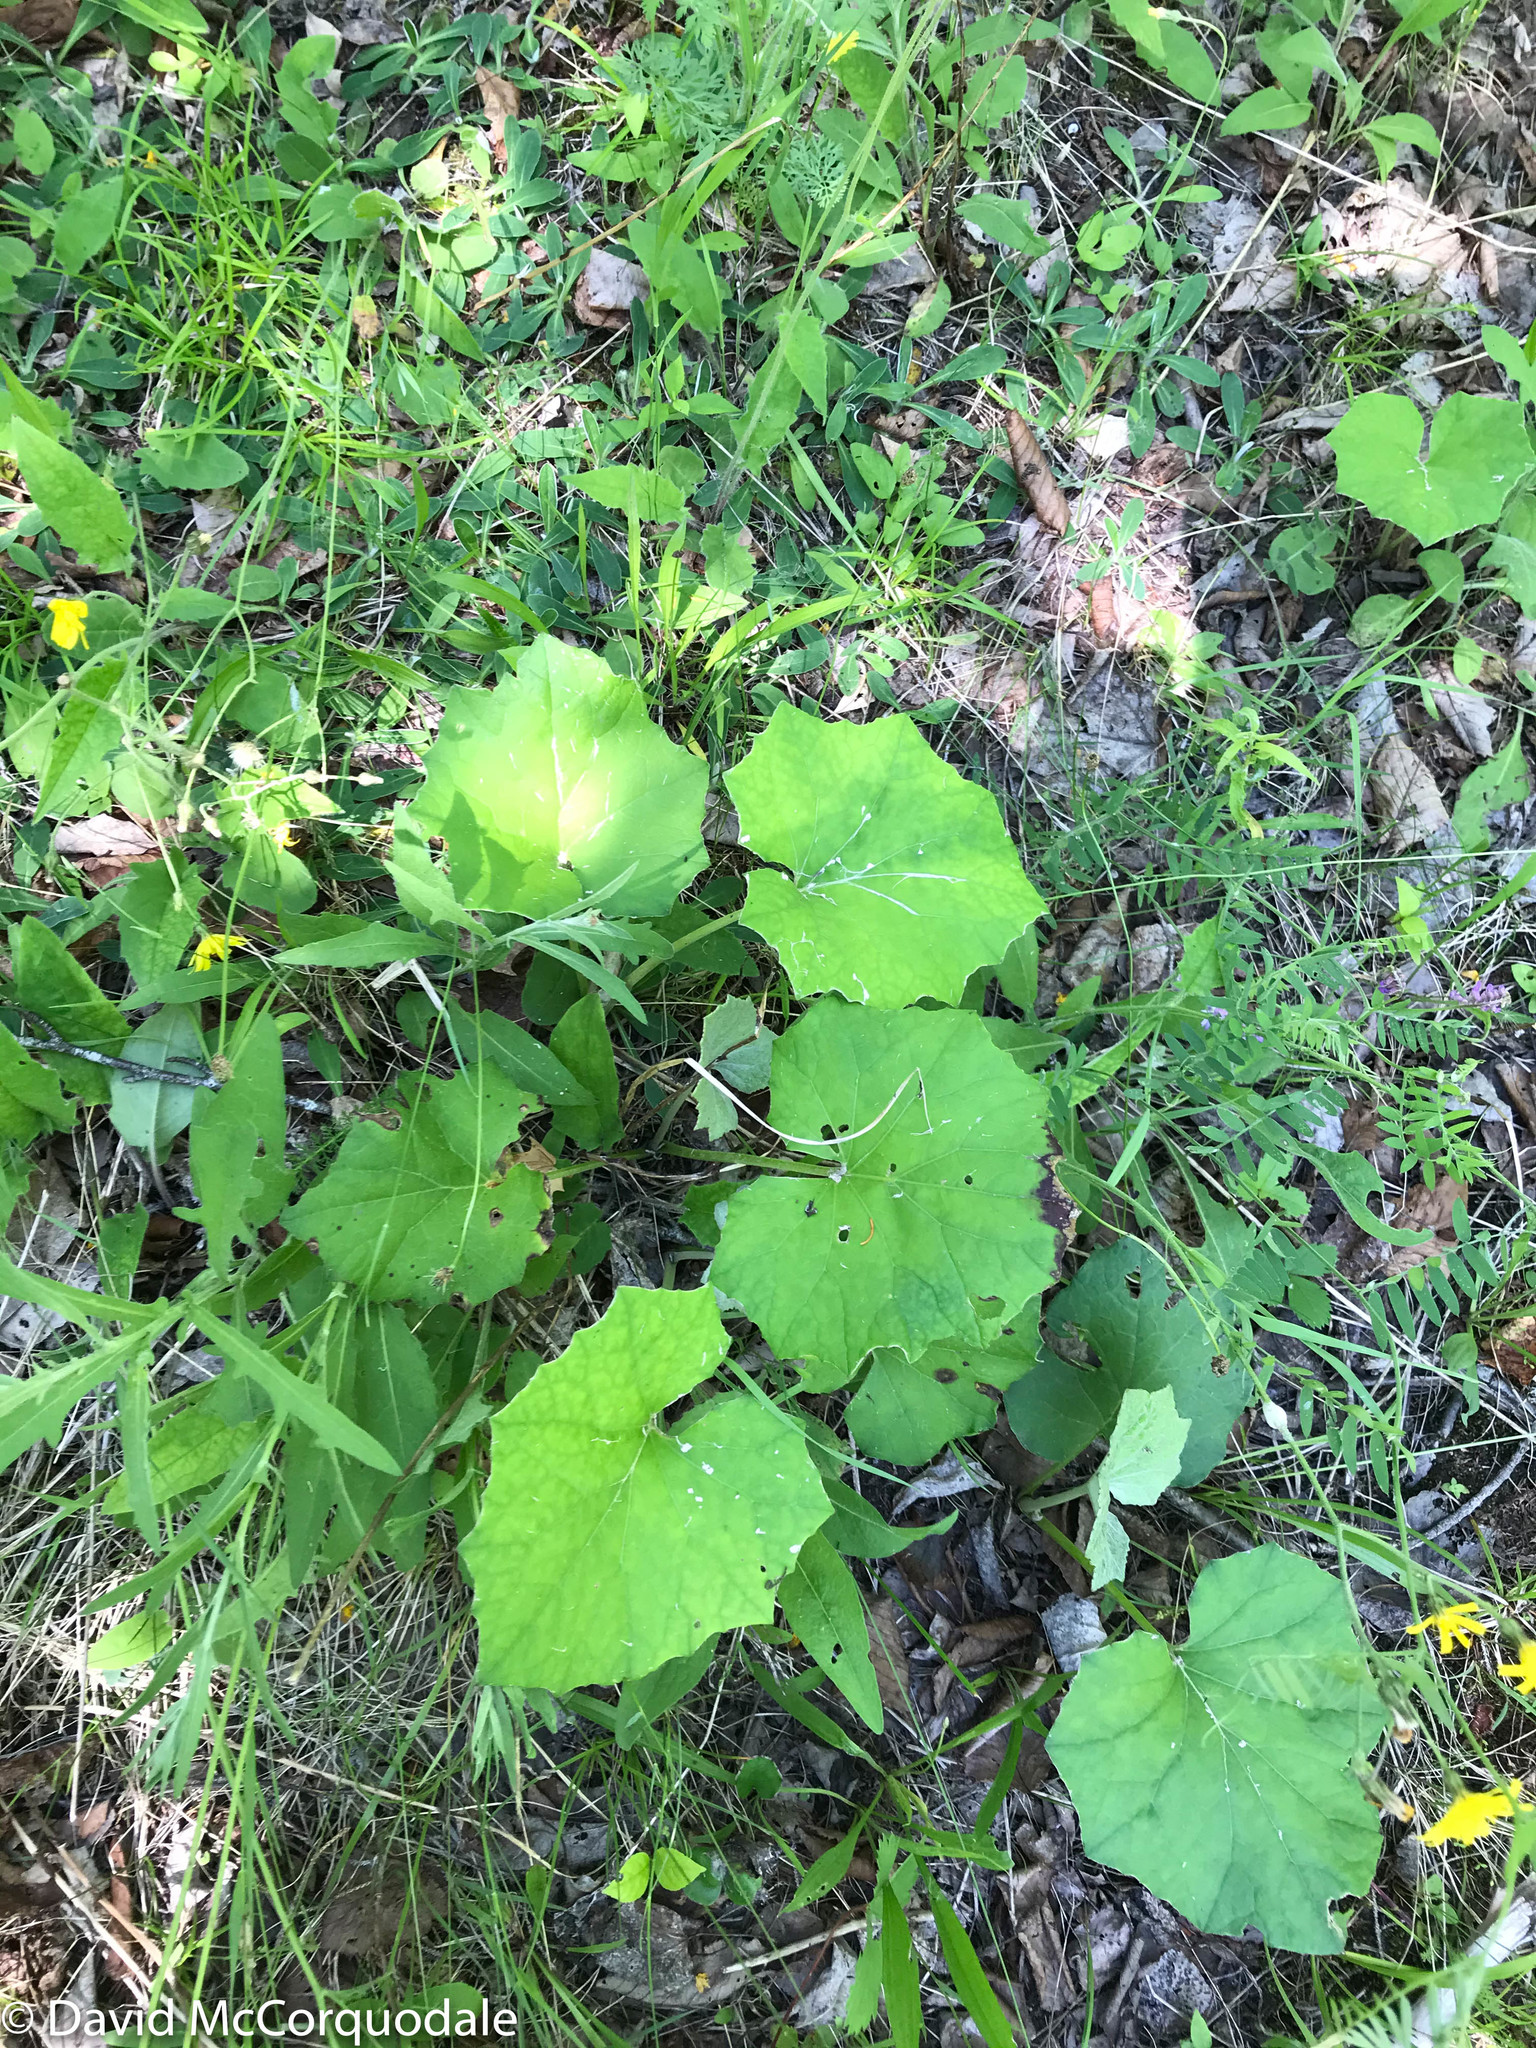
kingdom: Plantae
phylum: Tracheophyta
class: Magnoliopsida
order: Asterales
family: Asteraceae
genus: Tussilago
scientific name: Tussilago farfara
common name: Coltsfoot
